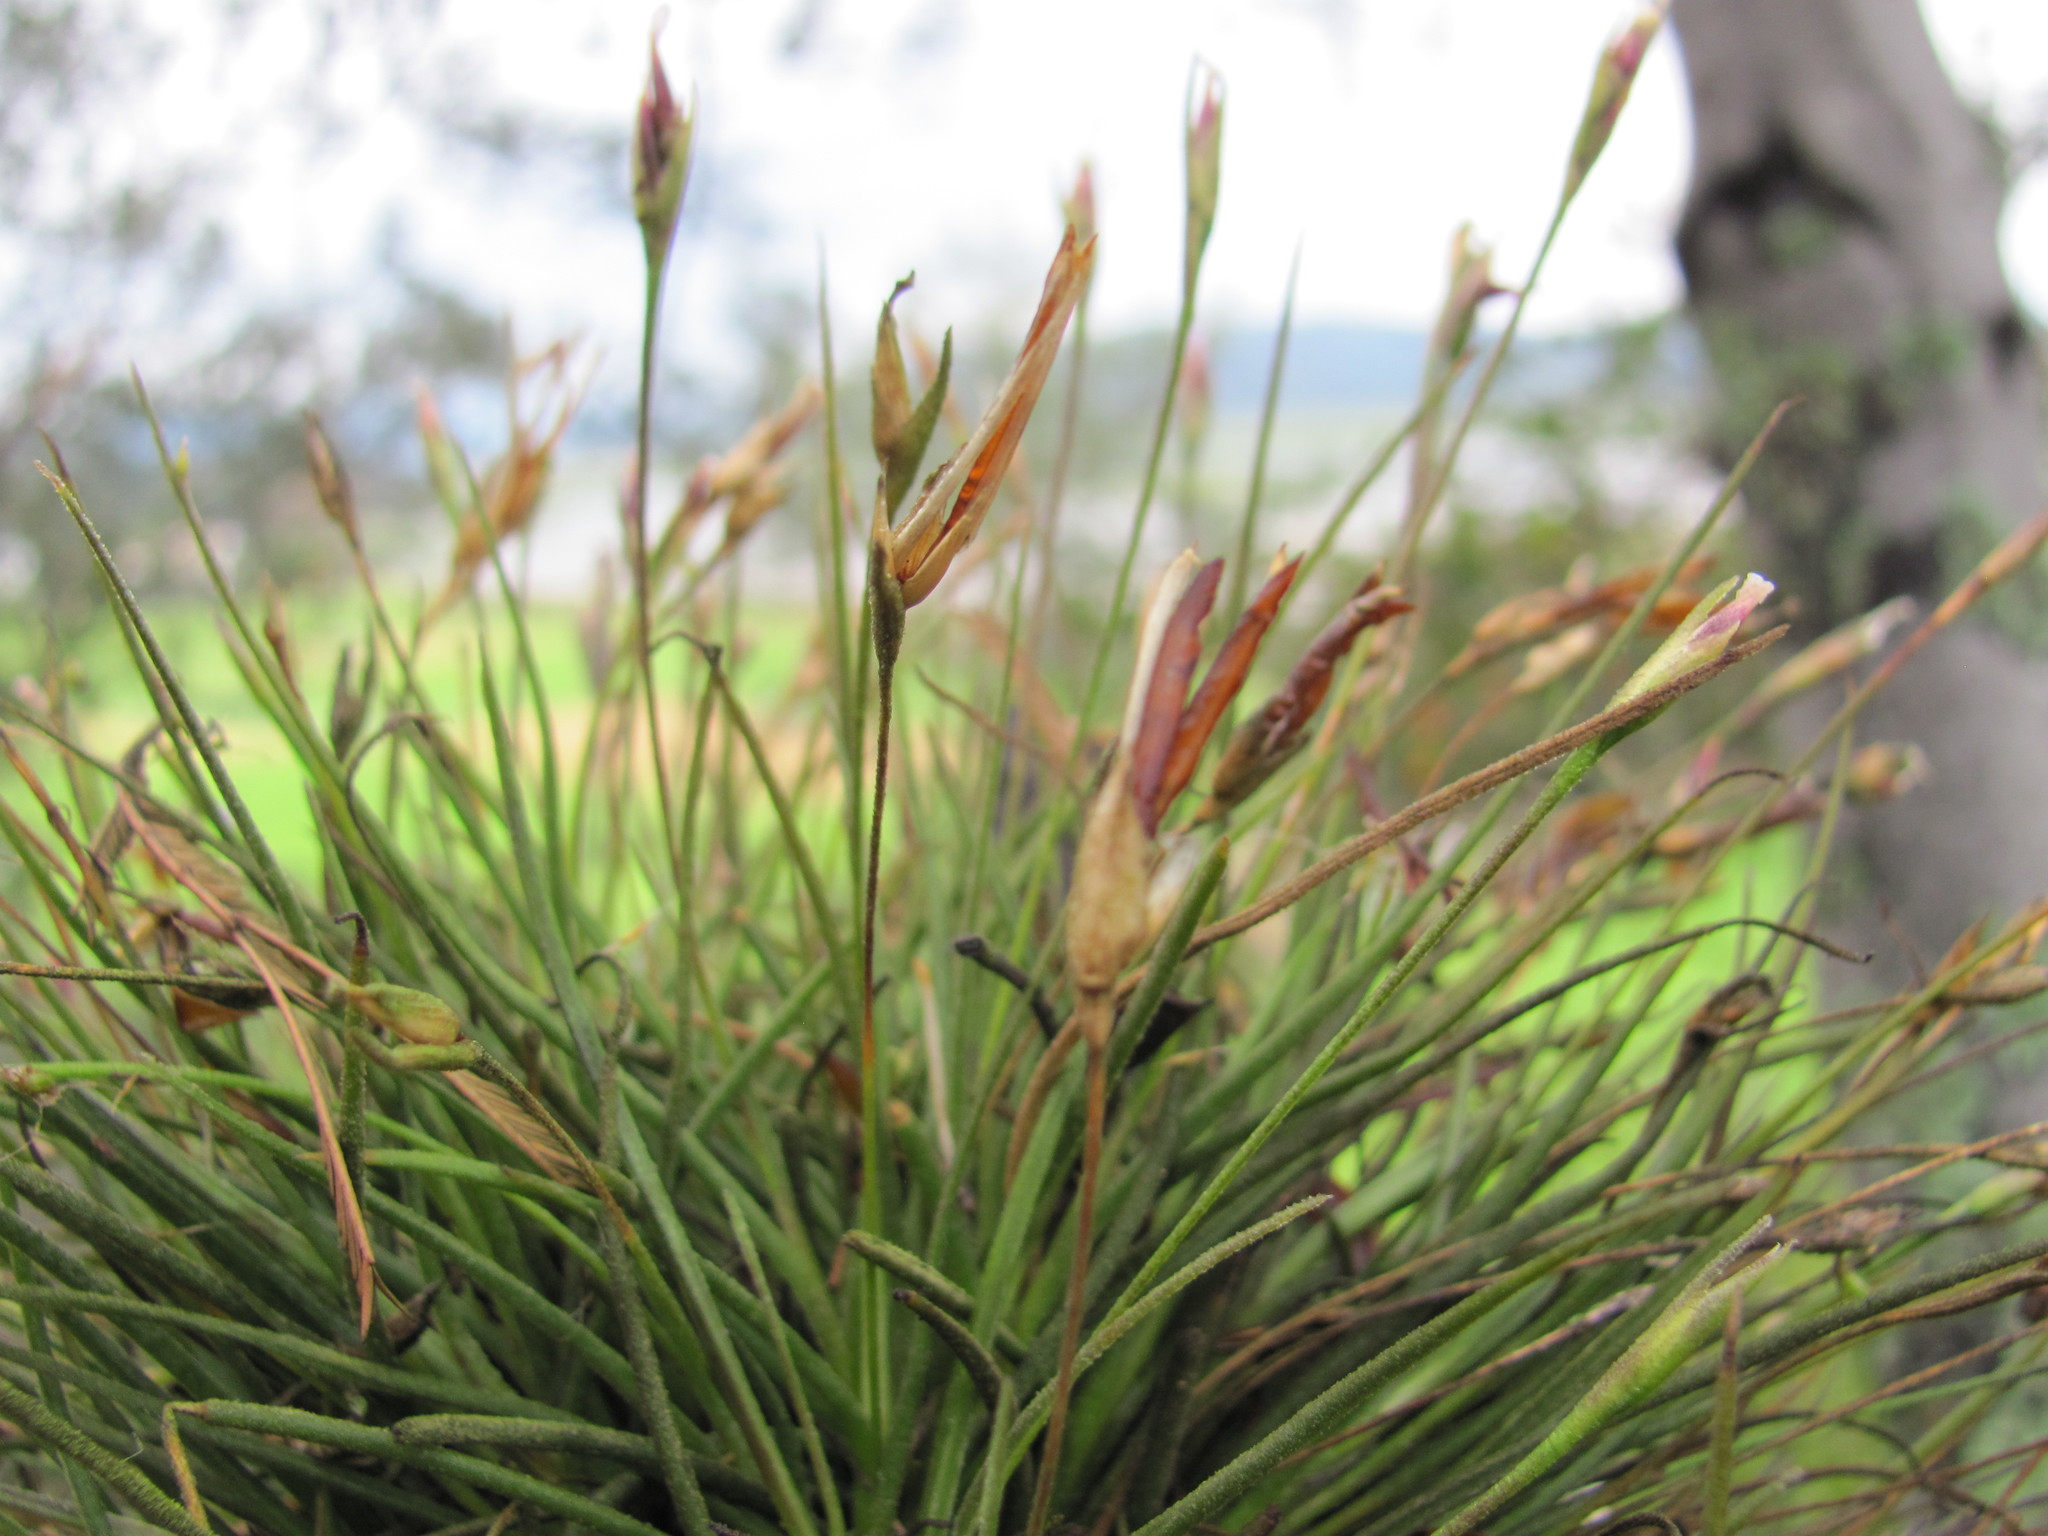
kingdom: Plantae
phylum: Tracheophyta
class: Liliopsida
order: Poales
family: Bromeliaceae
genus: Tillandsia
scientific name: Tillandsia recurvata
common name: Small ballmoss
